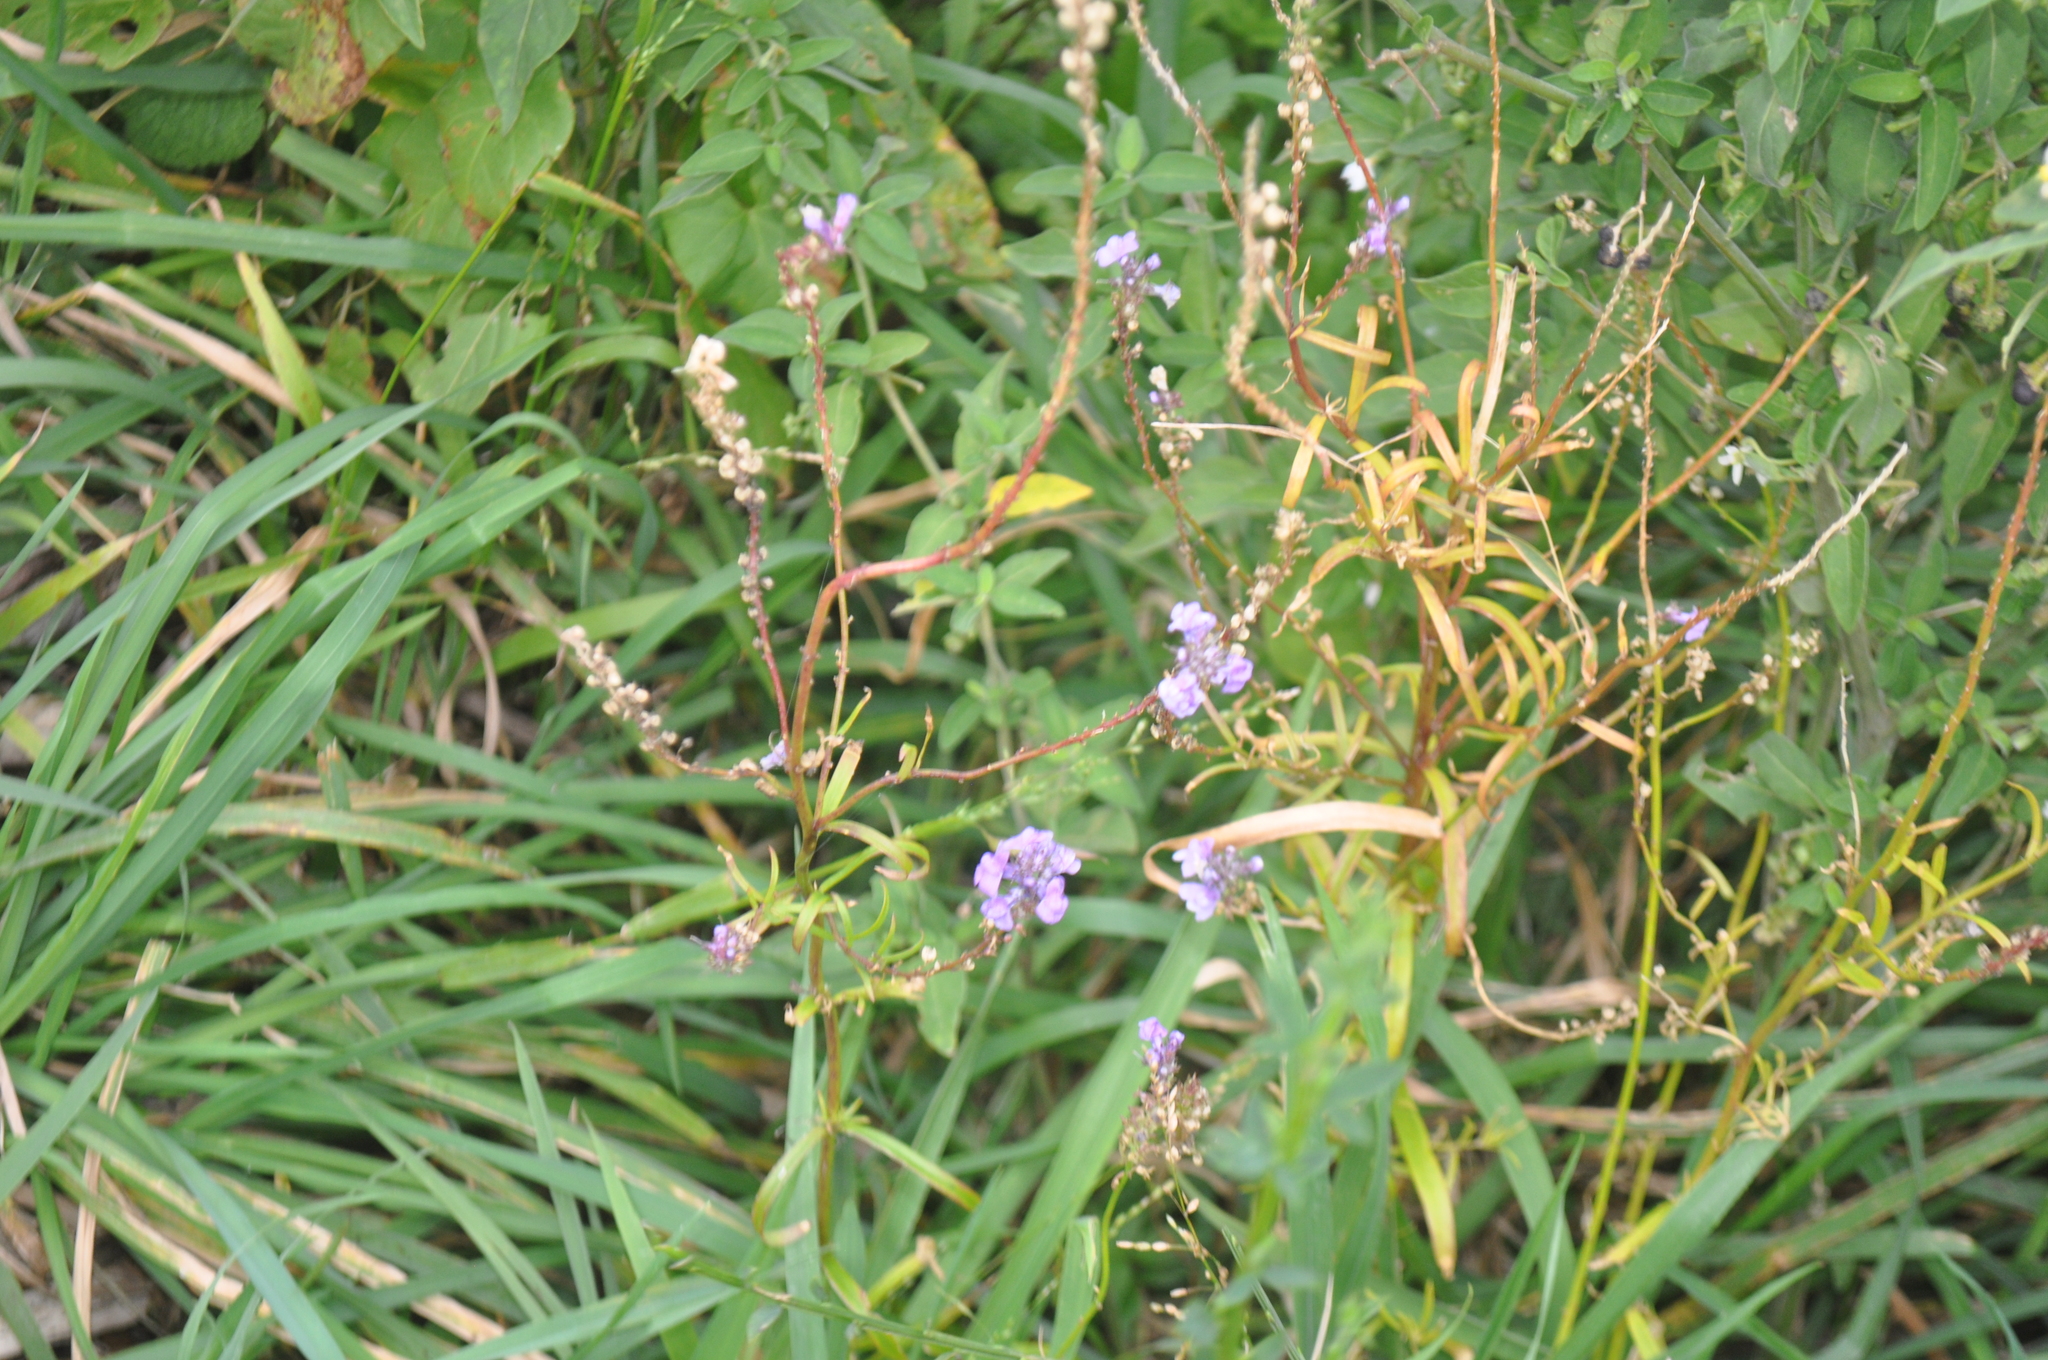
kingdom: Plantae
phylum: Tracheophyta
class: Magnoliopsida
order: Lamiales
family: Plantaginaceae
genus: Linaria
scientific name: Linaria purpurea
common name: Purple toadflax
